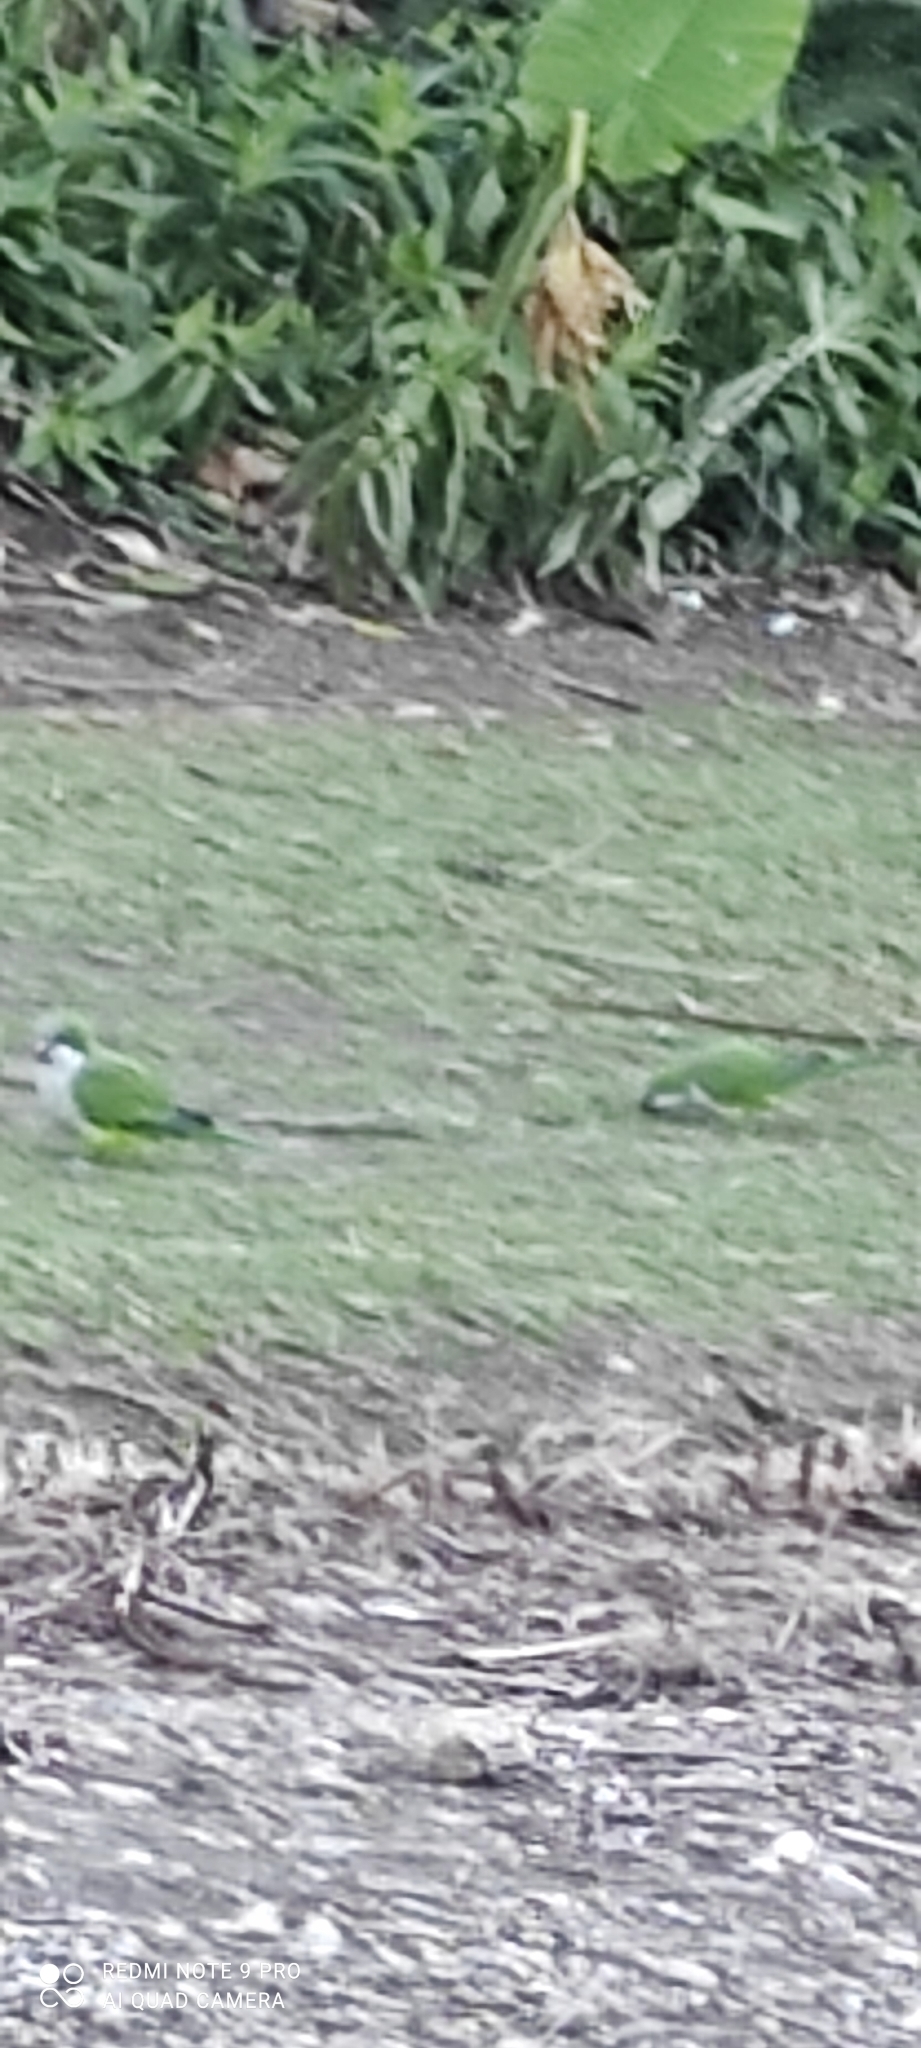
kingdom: Animalia
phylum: Chordata
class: Aves
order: Psittaciformes
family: Psittacidae
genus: Myiopsitta
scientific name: Myiopsitta monachus
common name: Monk parakeet
